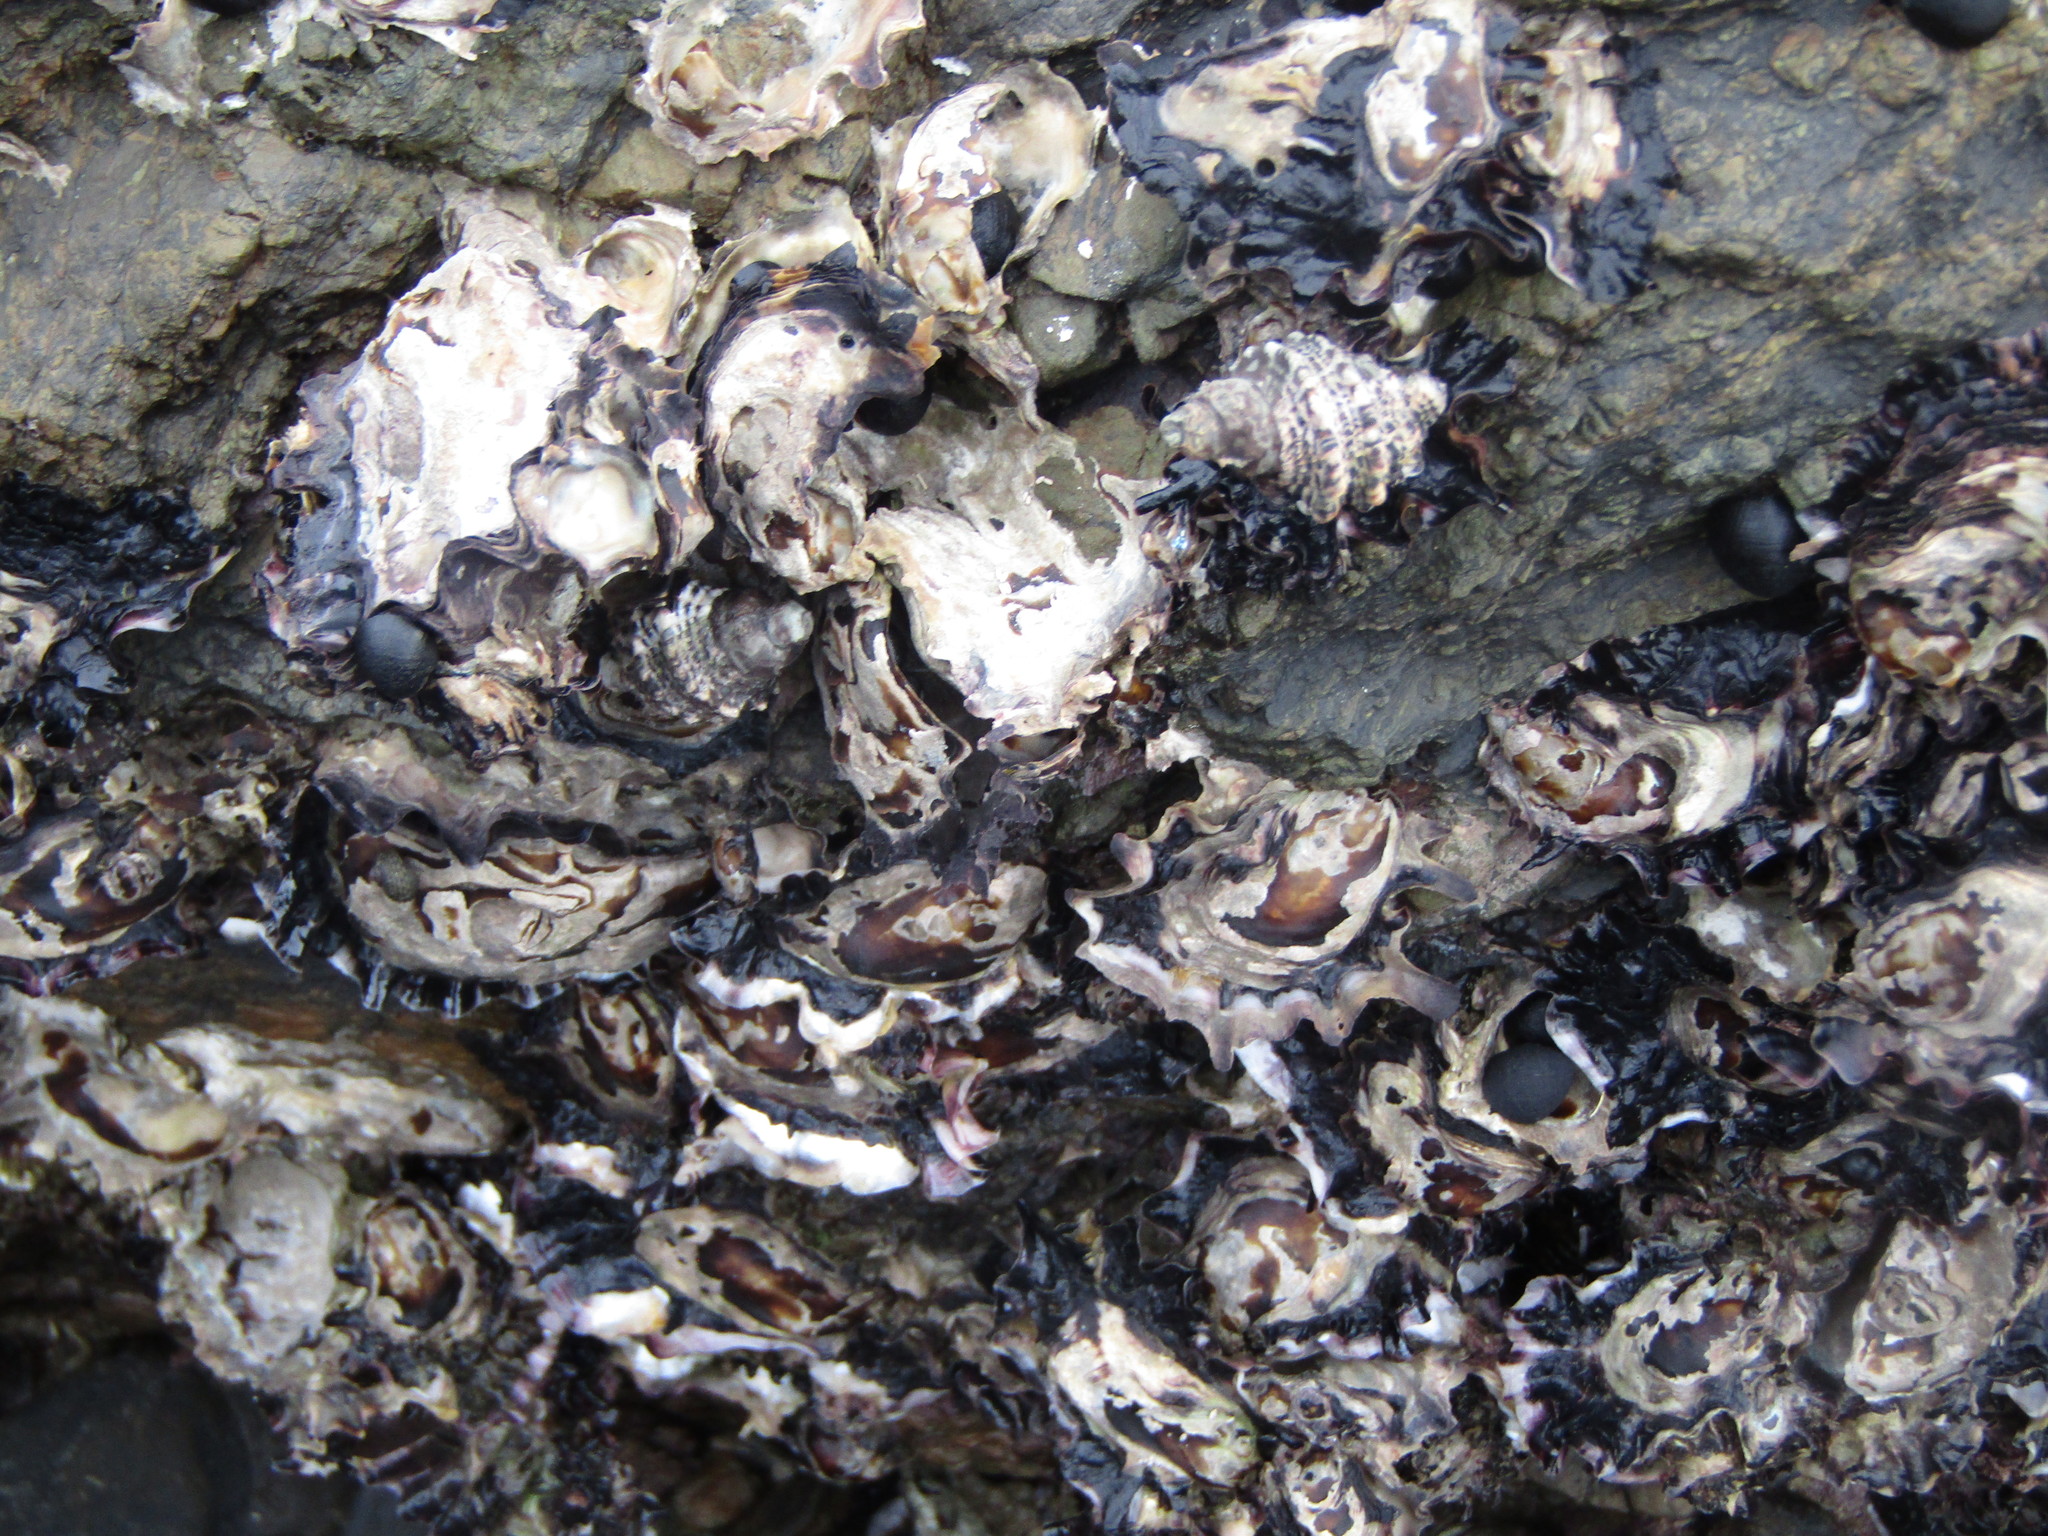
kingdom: Animalia
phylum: Mollusca
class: Gastropoda
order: Neogastropoda
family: Muricidae
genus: Haustrum
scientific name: Haustrum scobina
